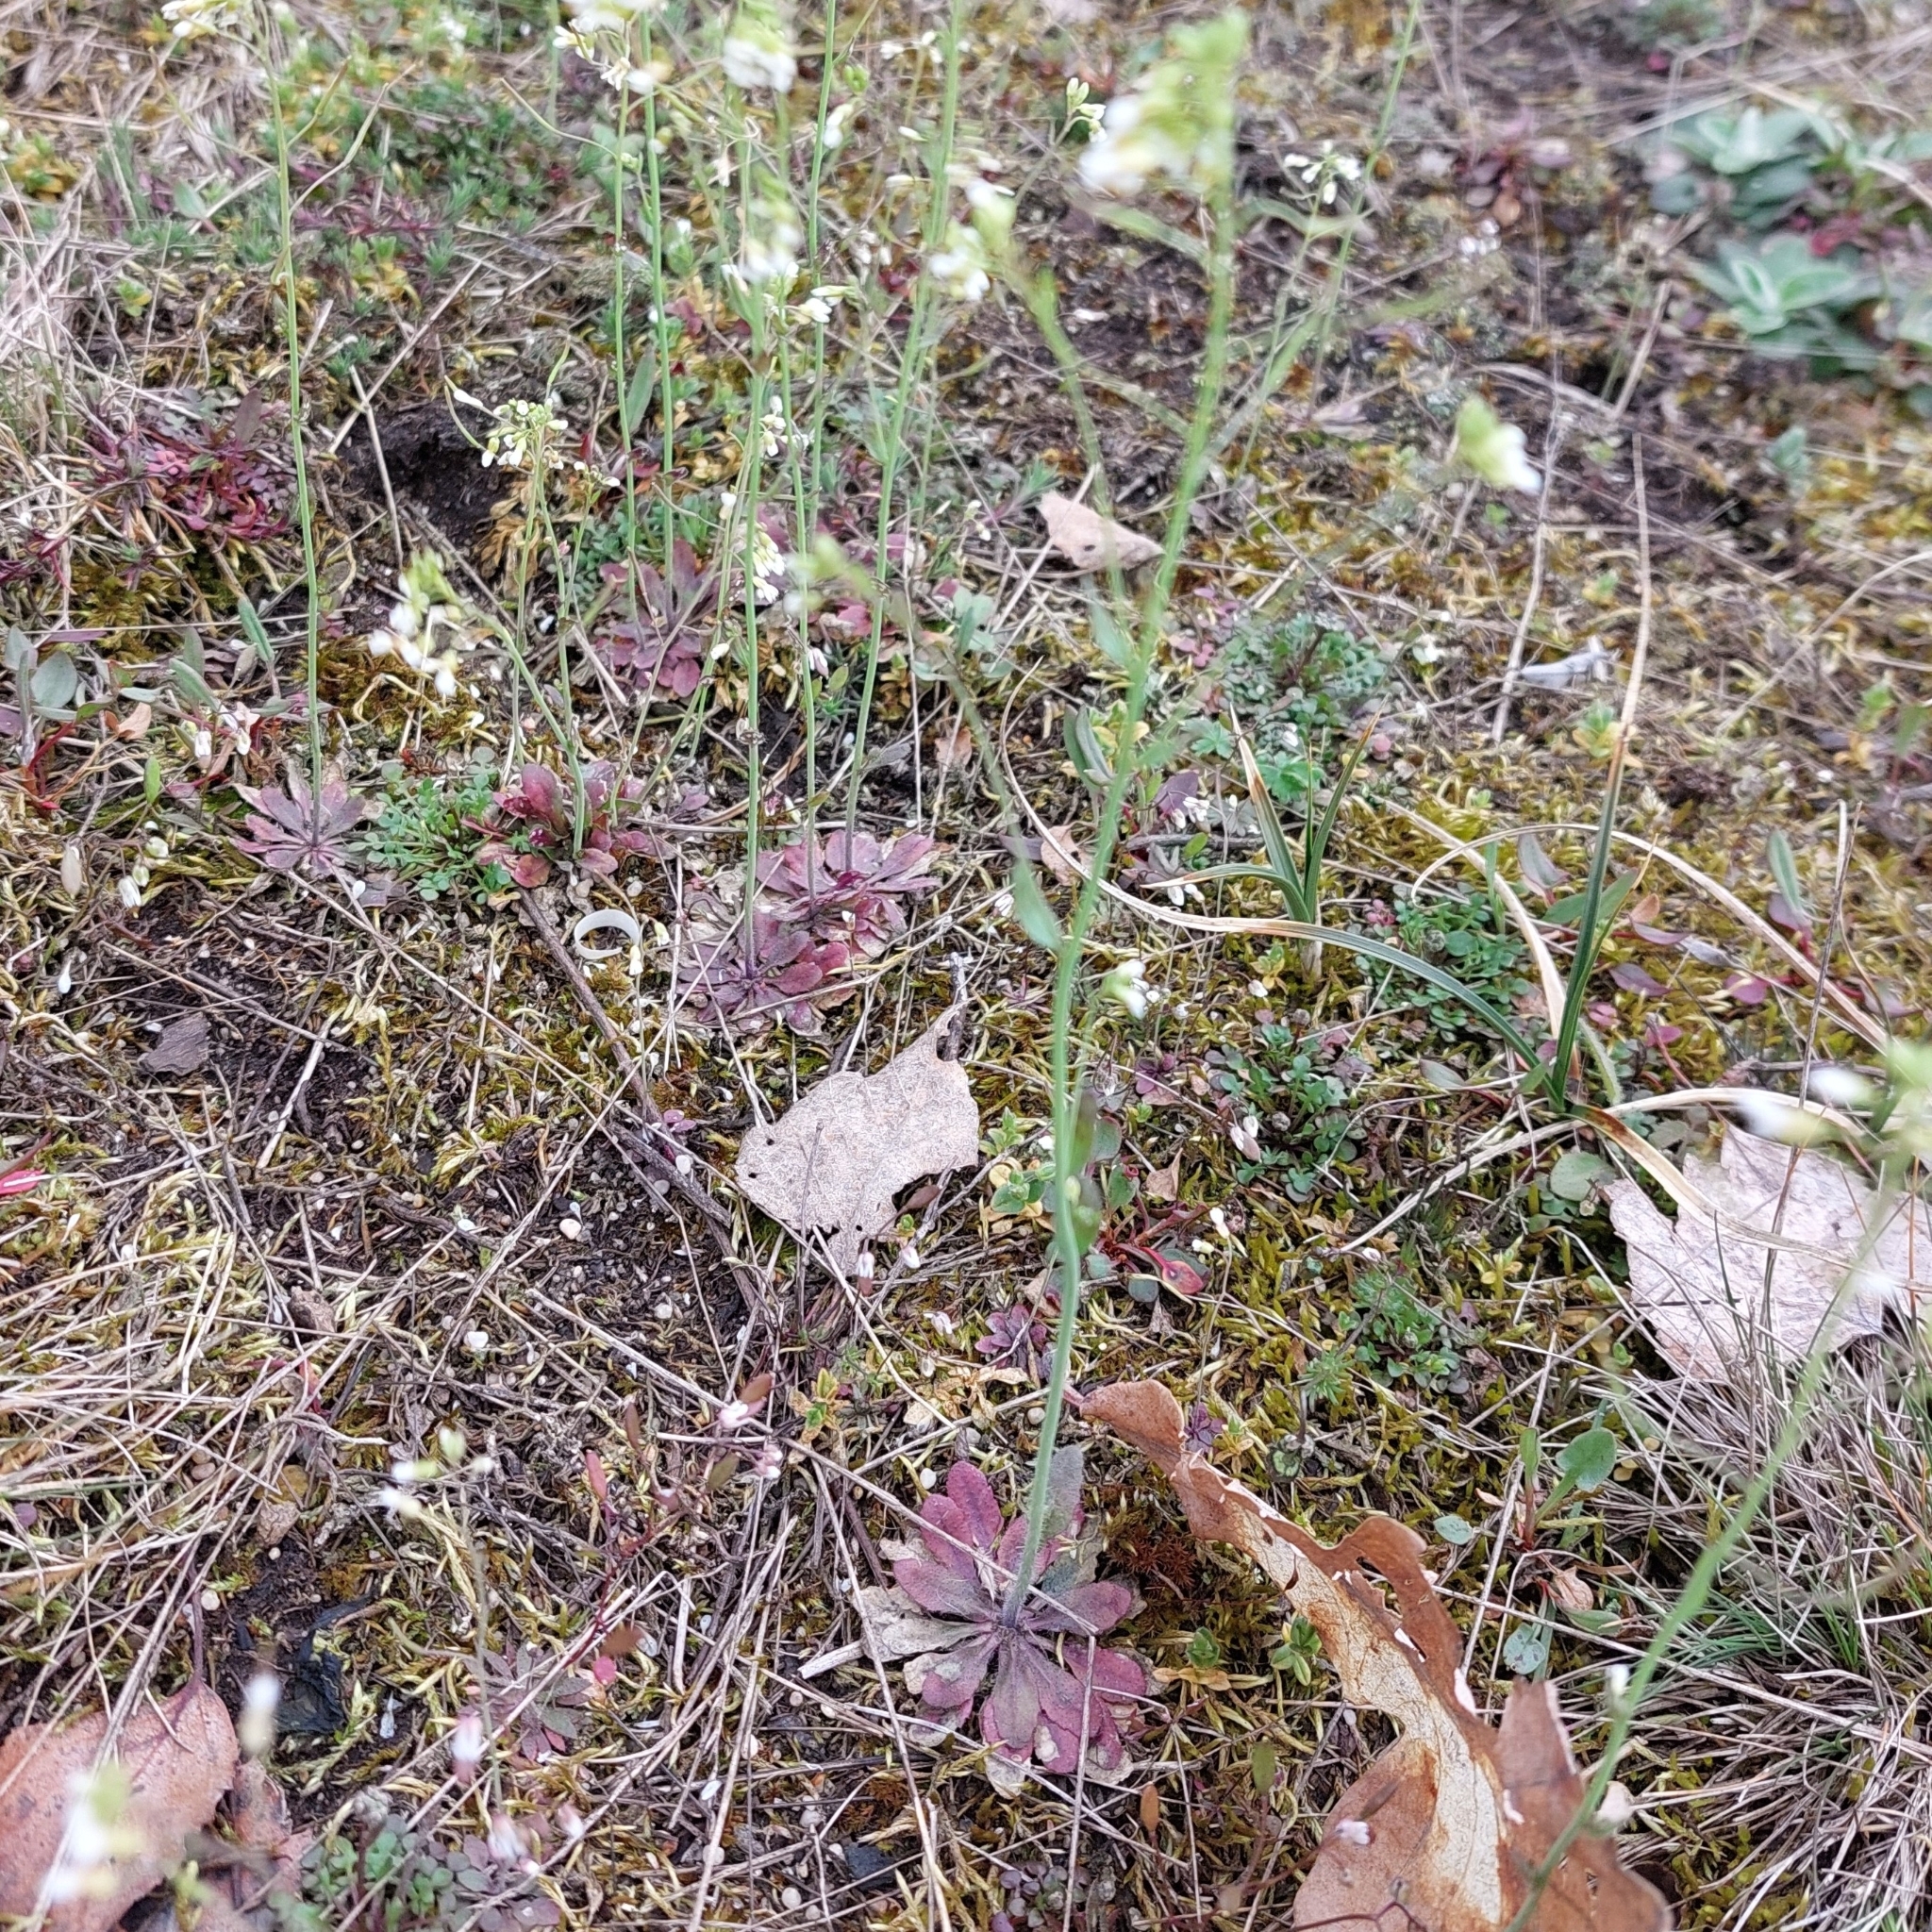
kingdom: Plantae
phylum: Tracheophyta
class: Magnoliopsida
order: Brassicales
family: Brassicaceae
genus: Arabidopsis
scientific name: Arabidopsis thaliana
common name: Thale cress
